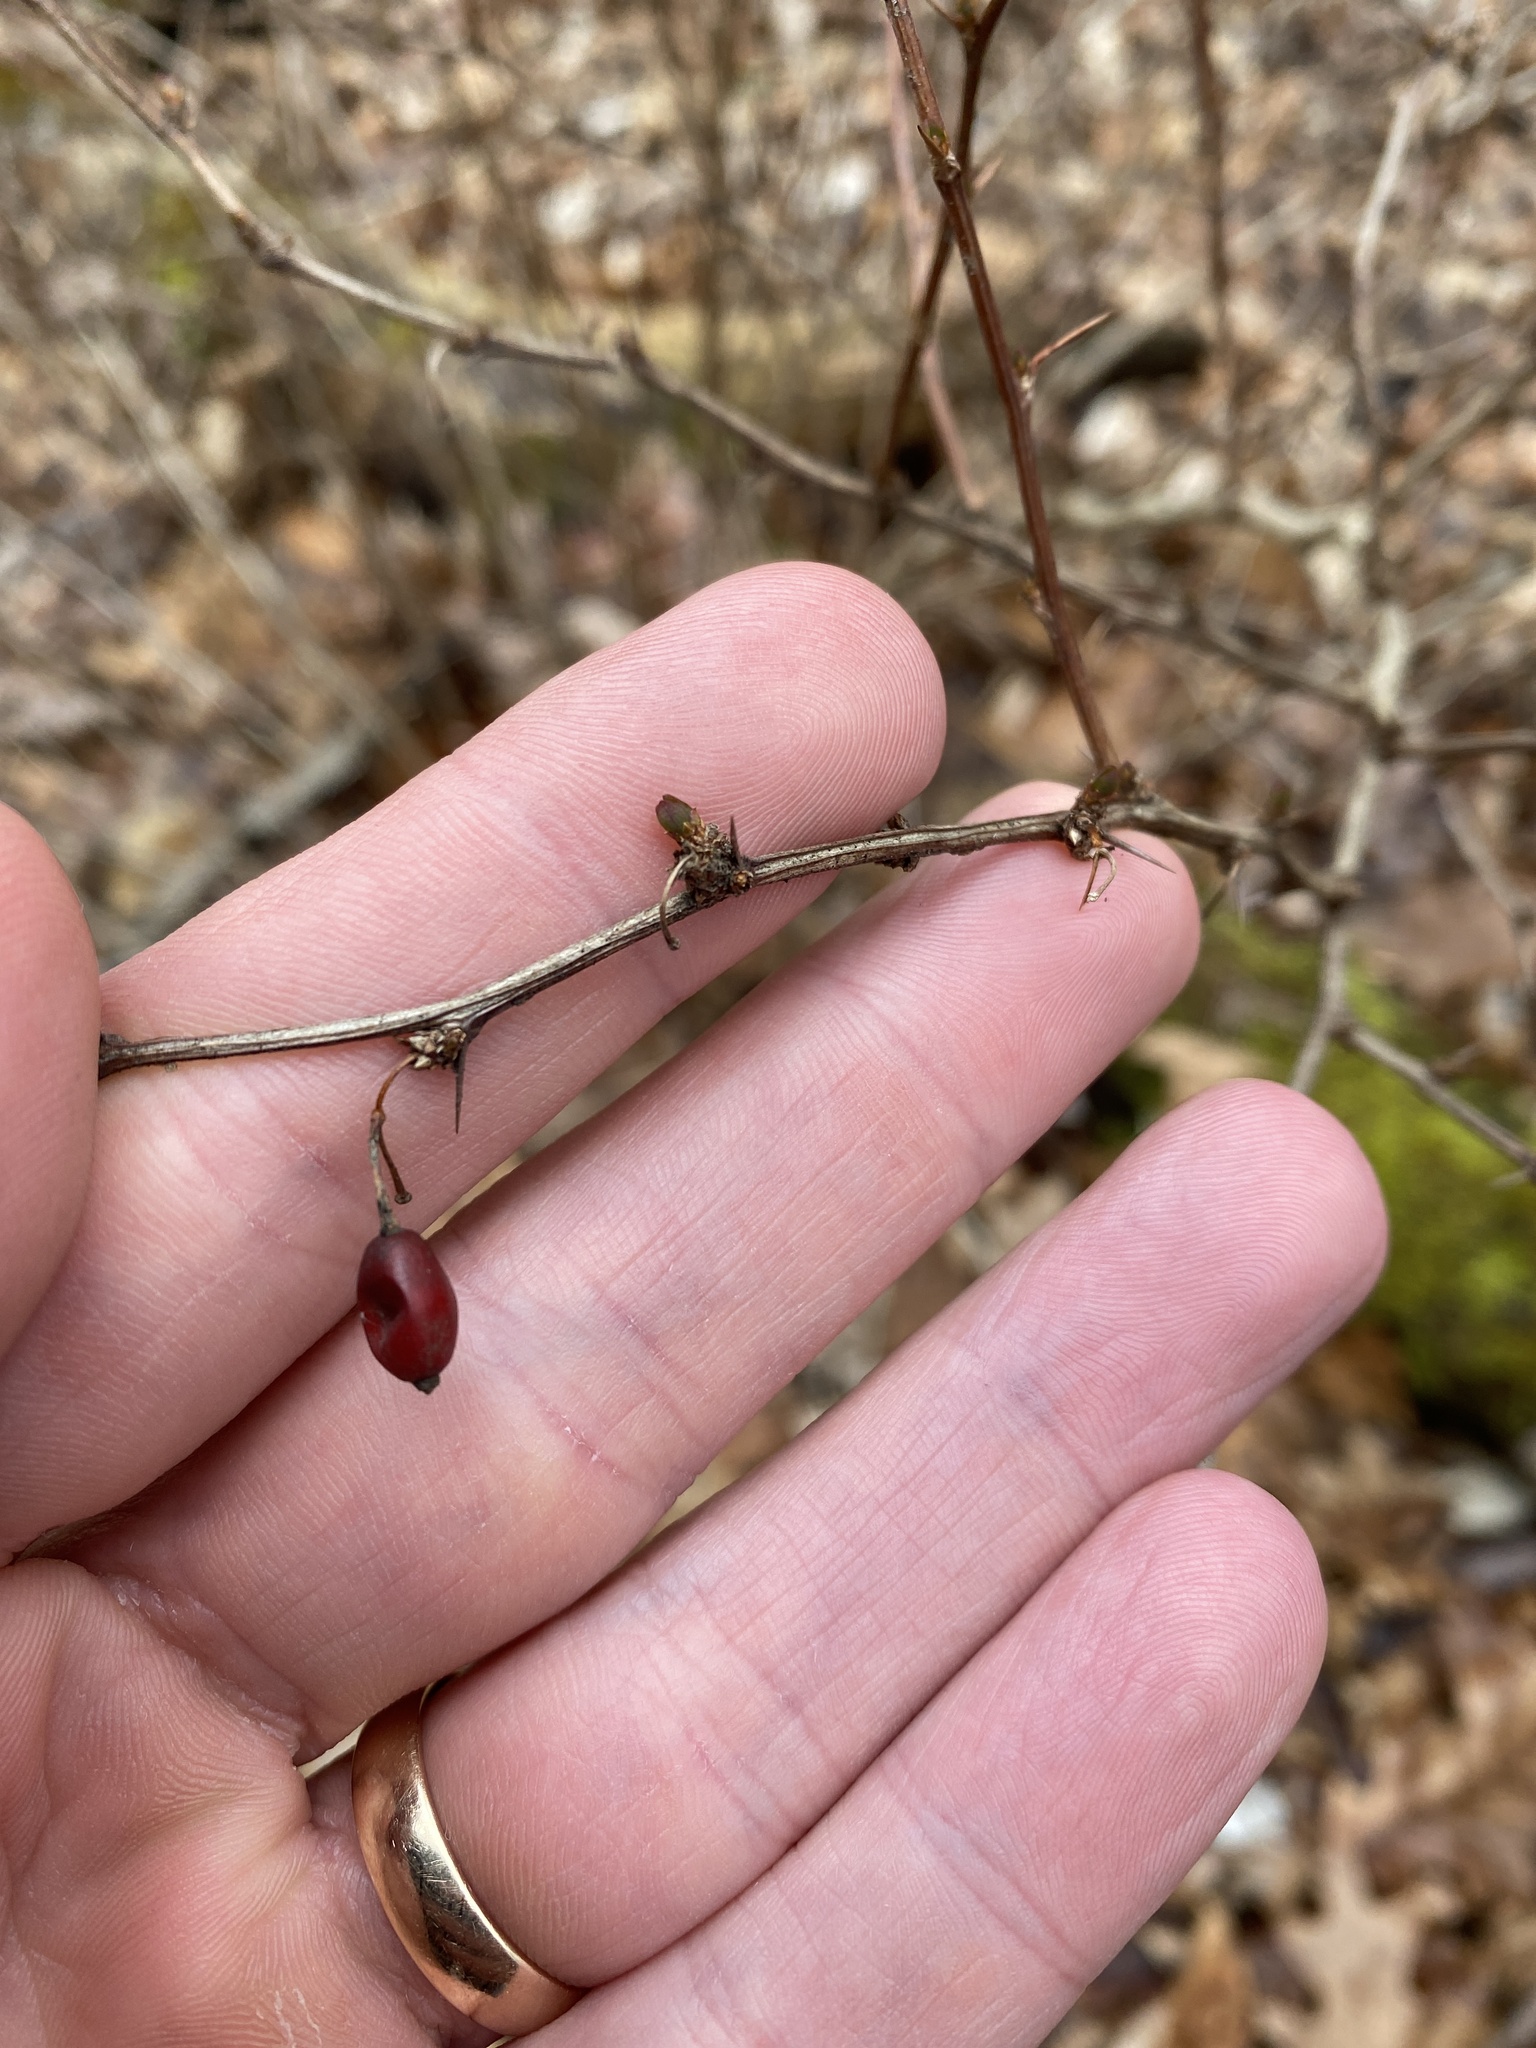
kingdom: Plantae
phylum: Tracheophyta
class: Magnoliopsida
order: Ranunculales
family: Berberidaceae
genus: Berberis
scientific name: Berberis thunbergii
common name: Japanese barberry
